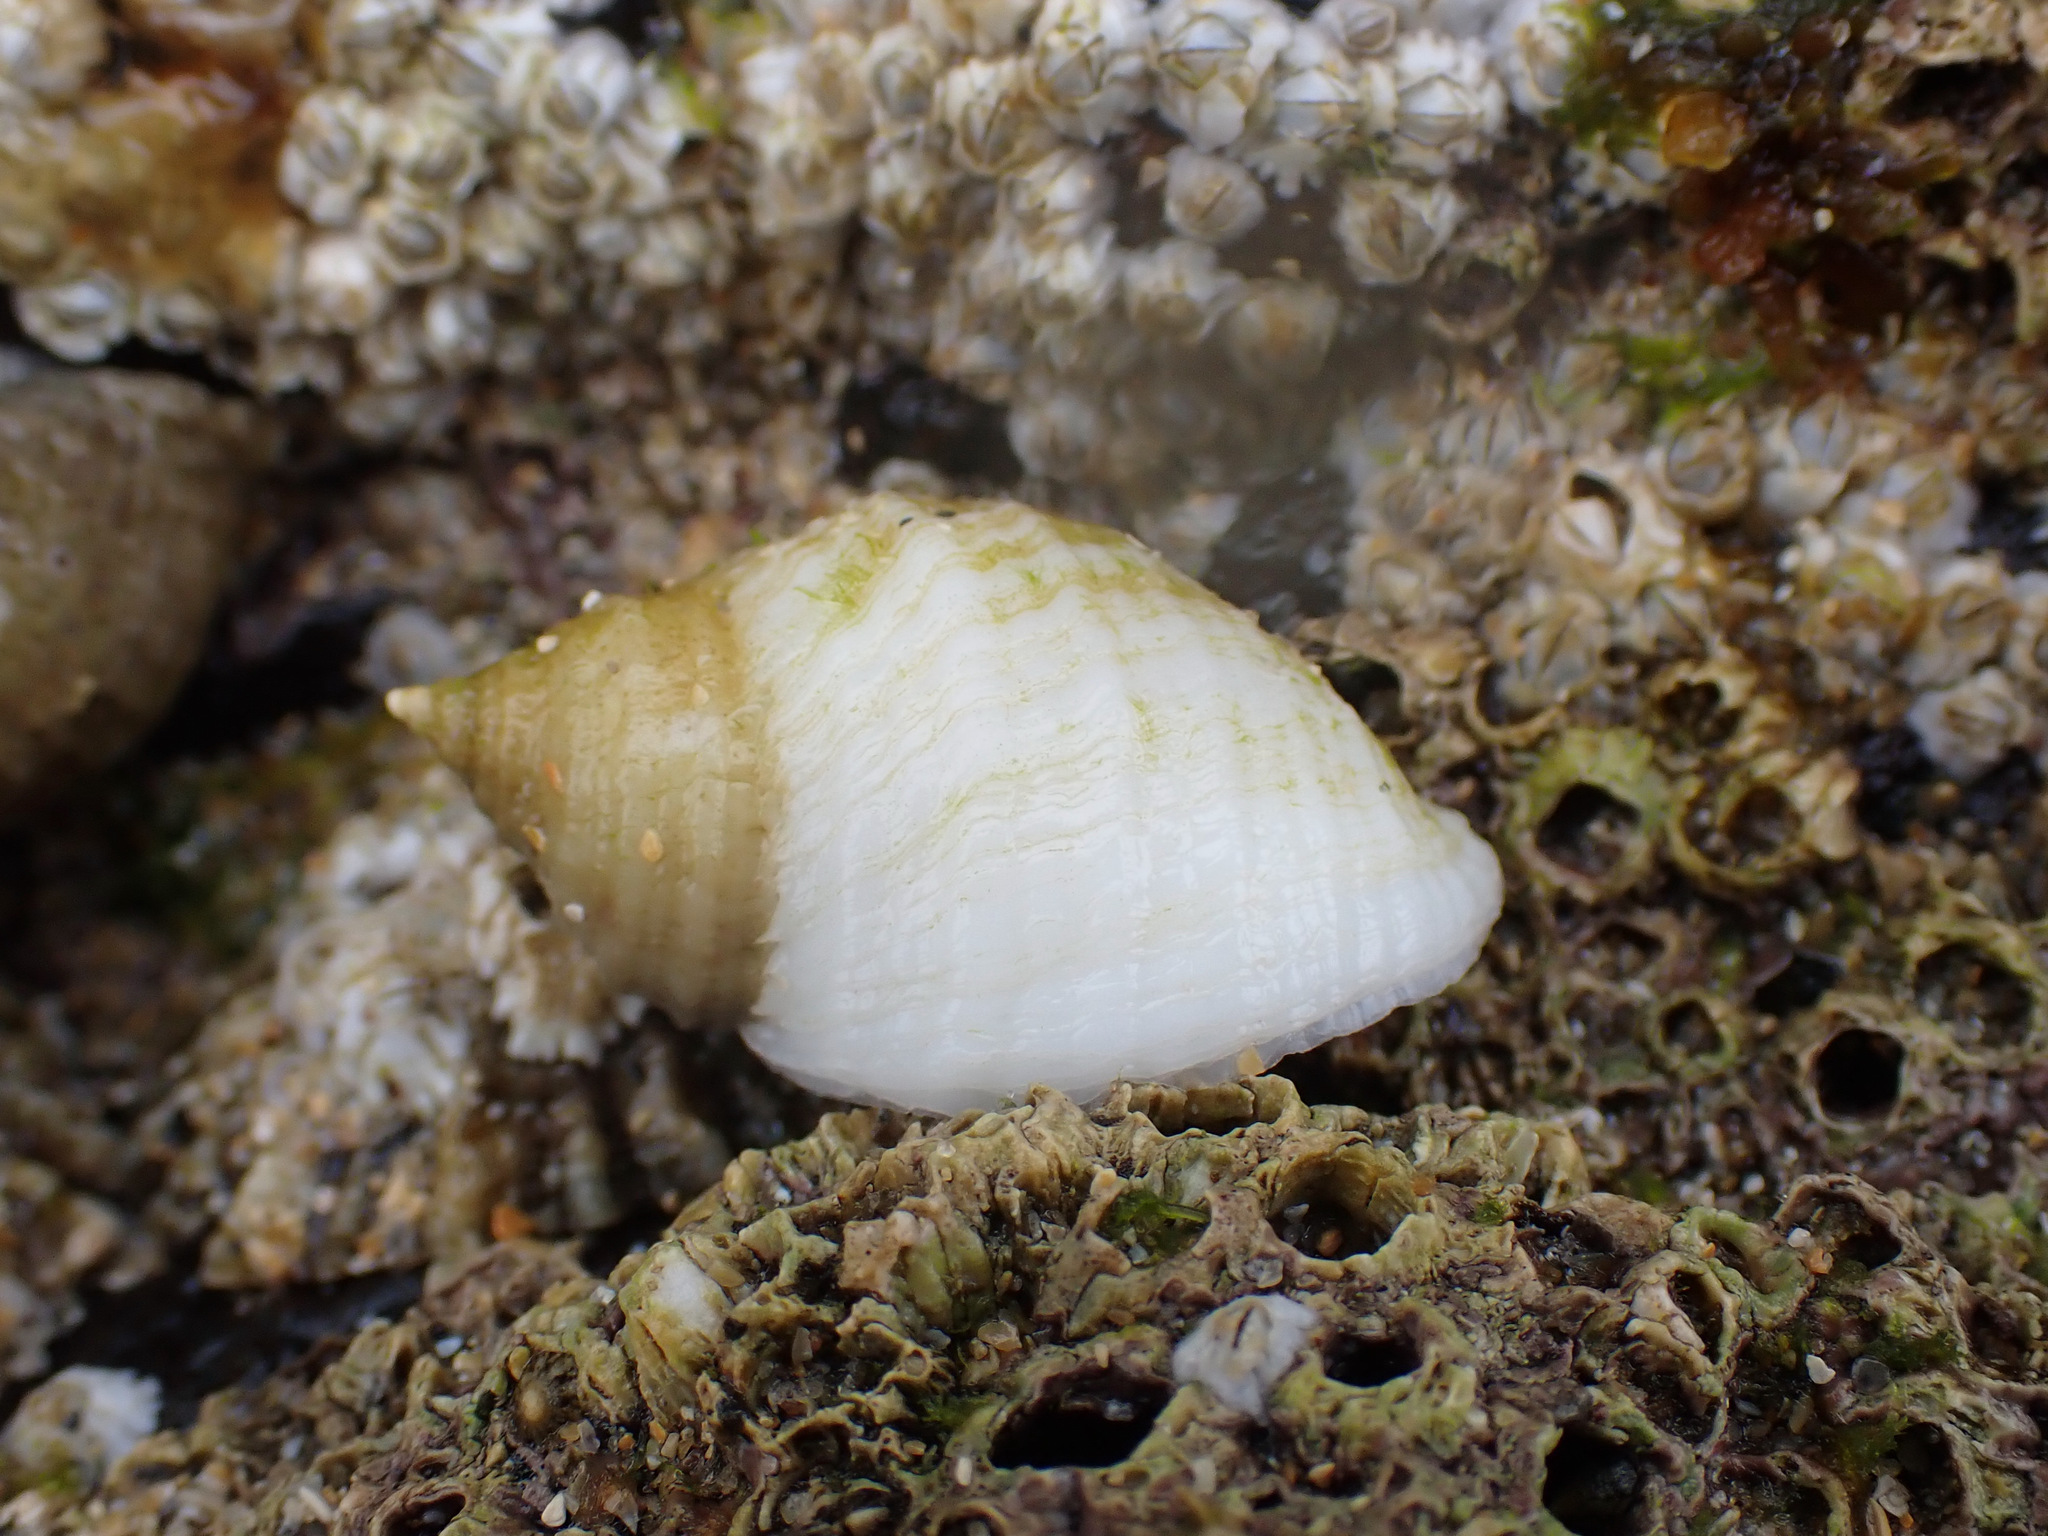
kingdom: Animalia
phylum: Mollusca
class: Gastropoda
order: Neogastropoda
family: Muricidae
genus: Nucella
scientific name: Nucella lapillus
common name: Dog whelk
